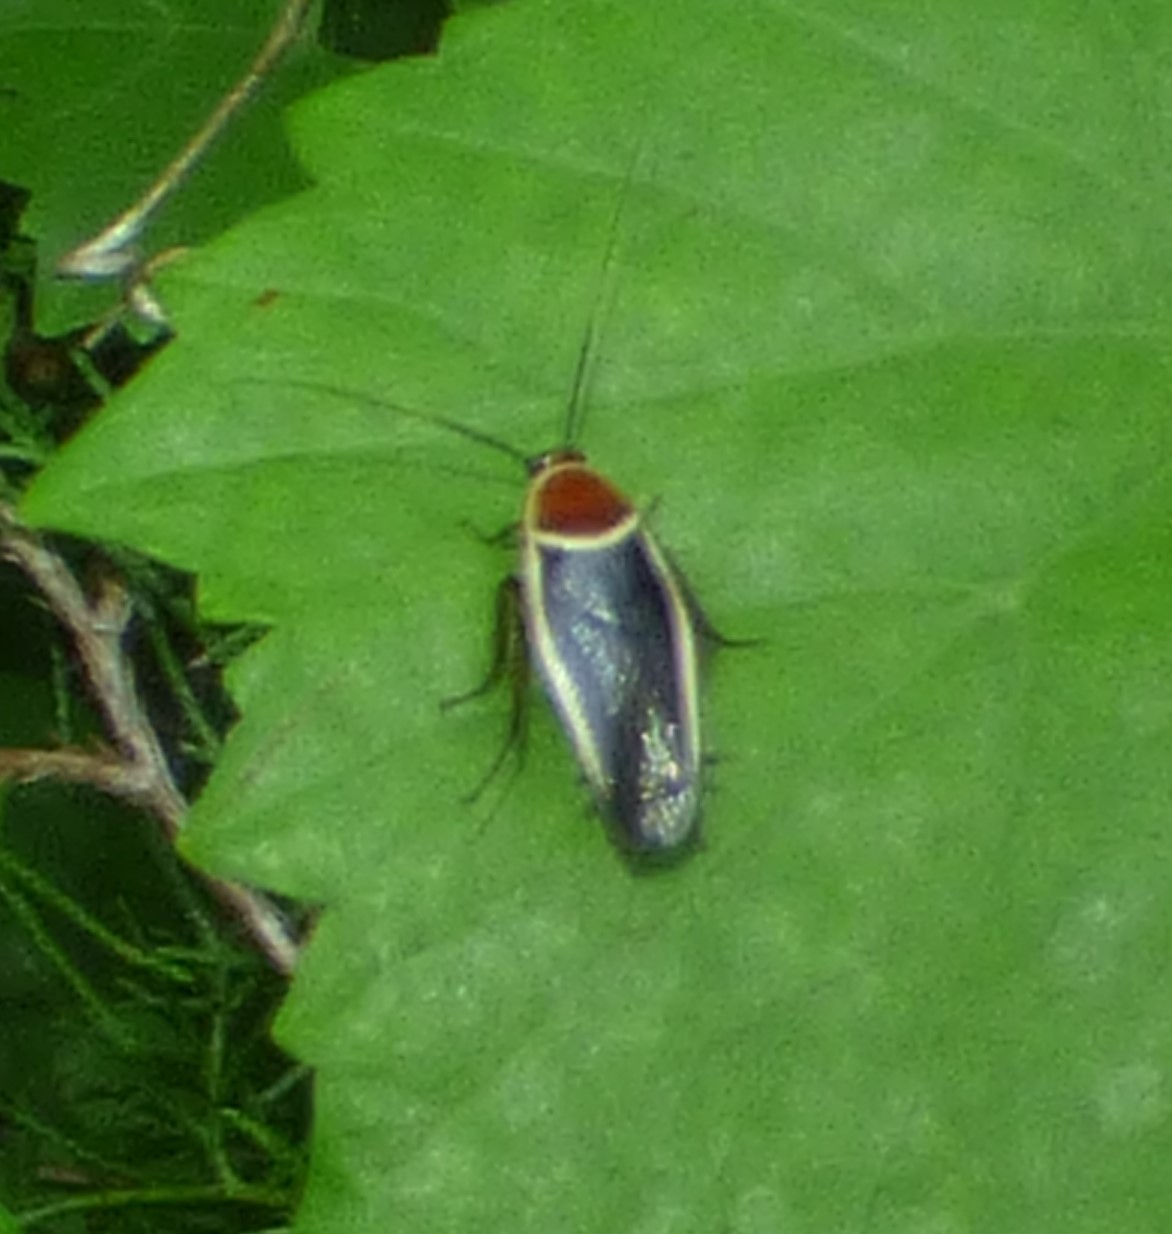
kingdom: Animalia
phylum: Arthropoda
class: Insecta
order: Blattodea
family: Ectobiidae
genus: Pseudomops
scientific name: Pseudomops septentrionalis
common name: Pale-bordered field cockroach
